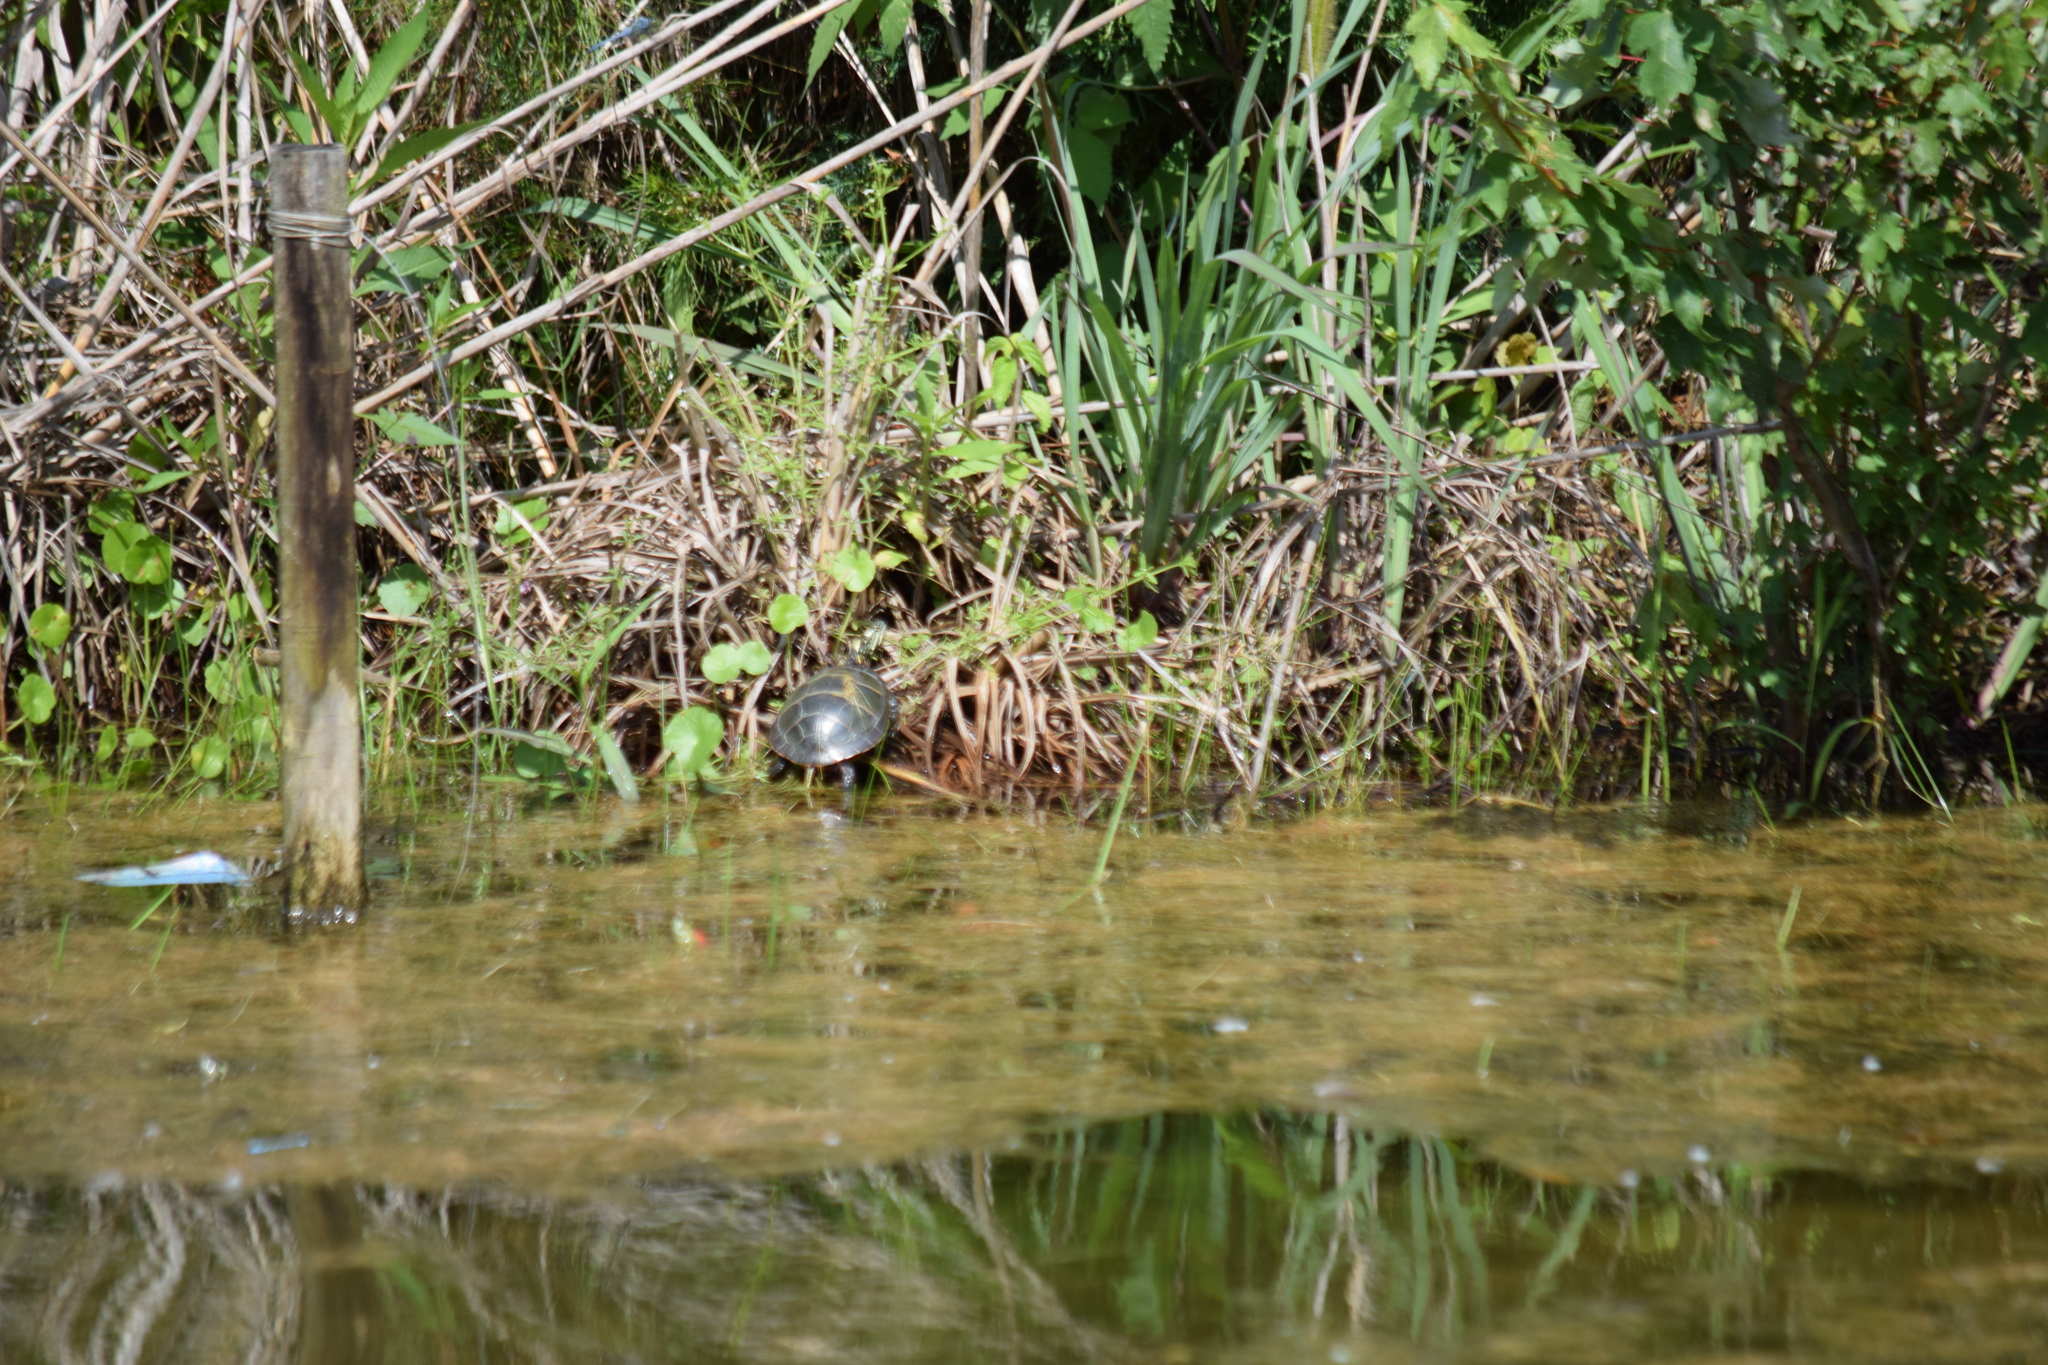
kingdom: Animalia
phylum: Chordata
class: Testudines
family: Emydidae
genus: Chrysemys
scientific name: Chrysemys picta
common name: Painted turtle
